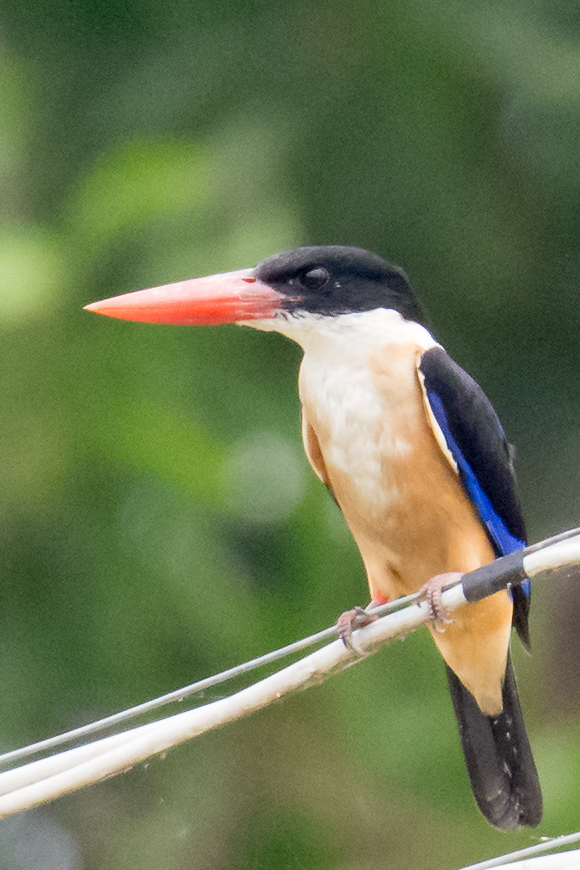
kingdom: Animalia
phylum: Chordata
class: Aves
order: Coraciiformes
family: Alcedinidae
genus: Halcyon
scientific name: Halcyon pileata
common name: Black-capped kingfisher
